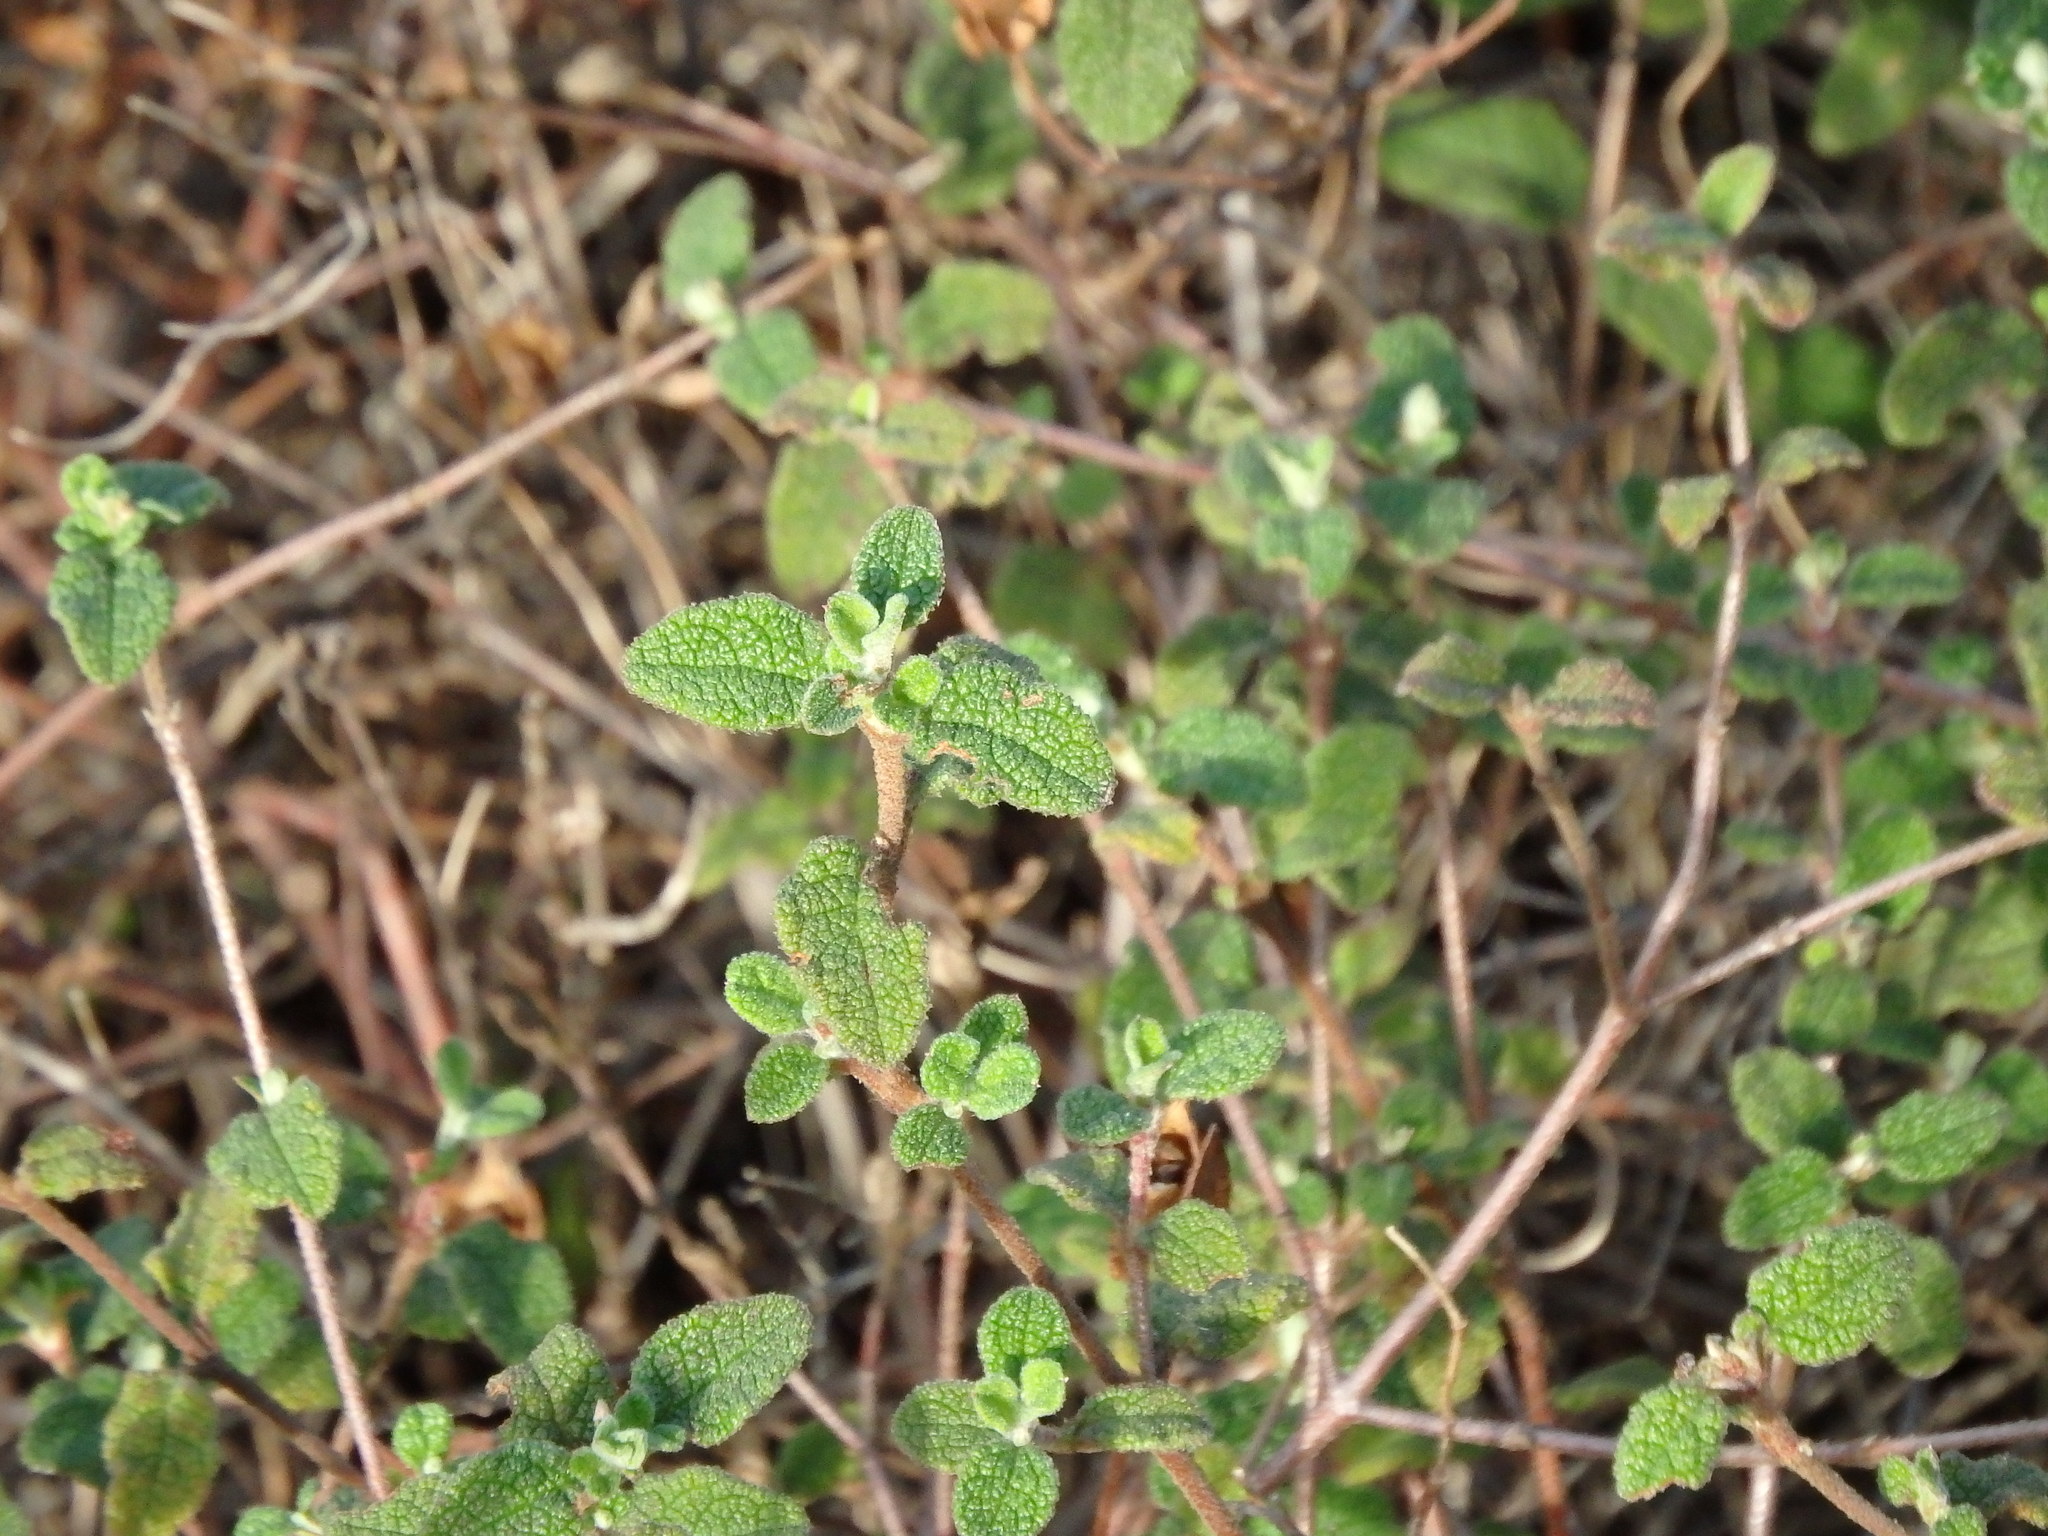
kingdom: Plantae
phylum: Tracheophyta
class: Magnoliopsida
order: Malvales
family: Cistaceae
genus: Cistus
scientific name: Cistus salviifolius
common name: Salvia cistus
